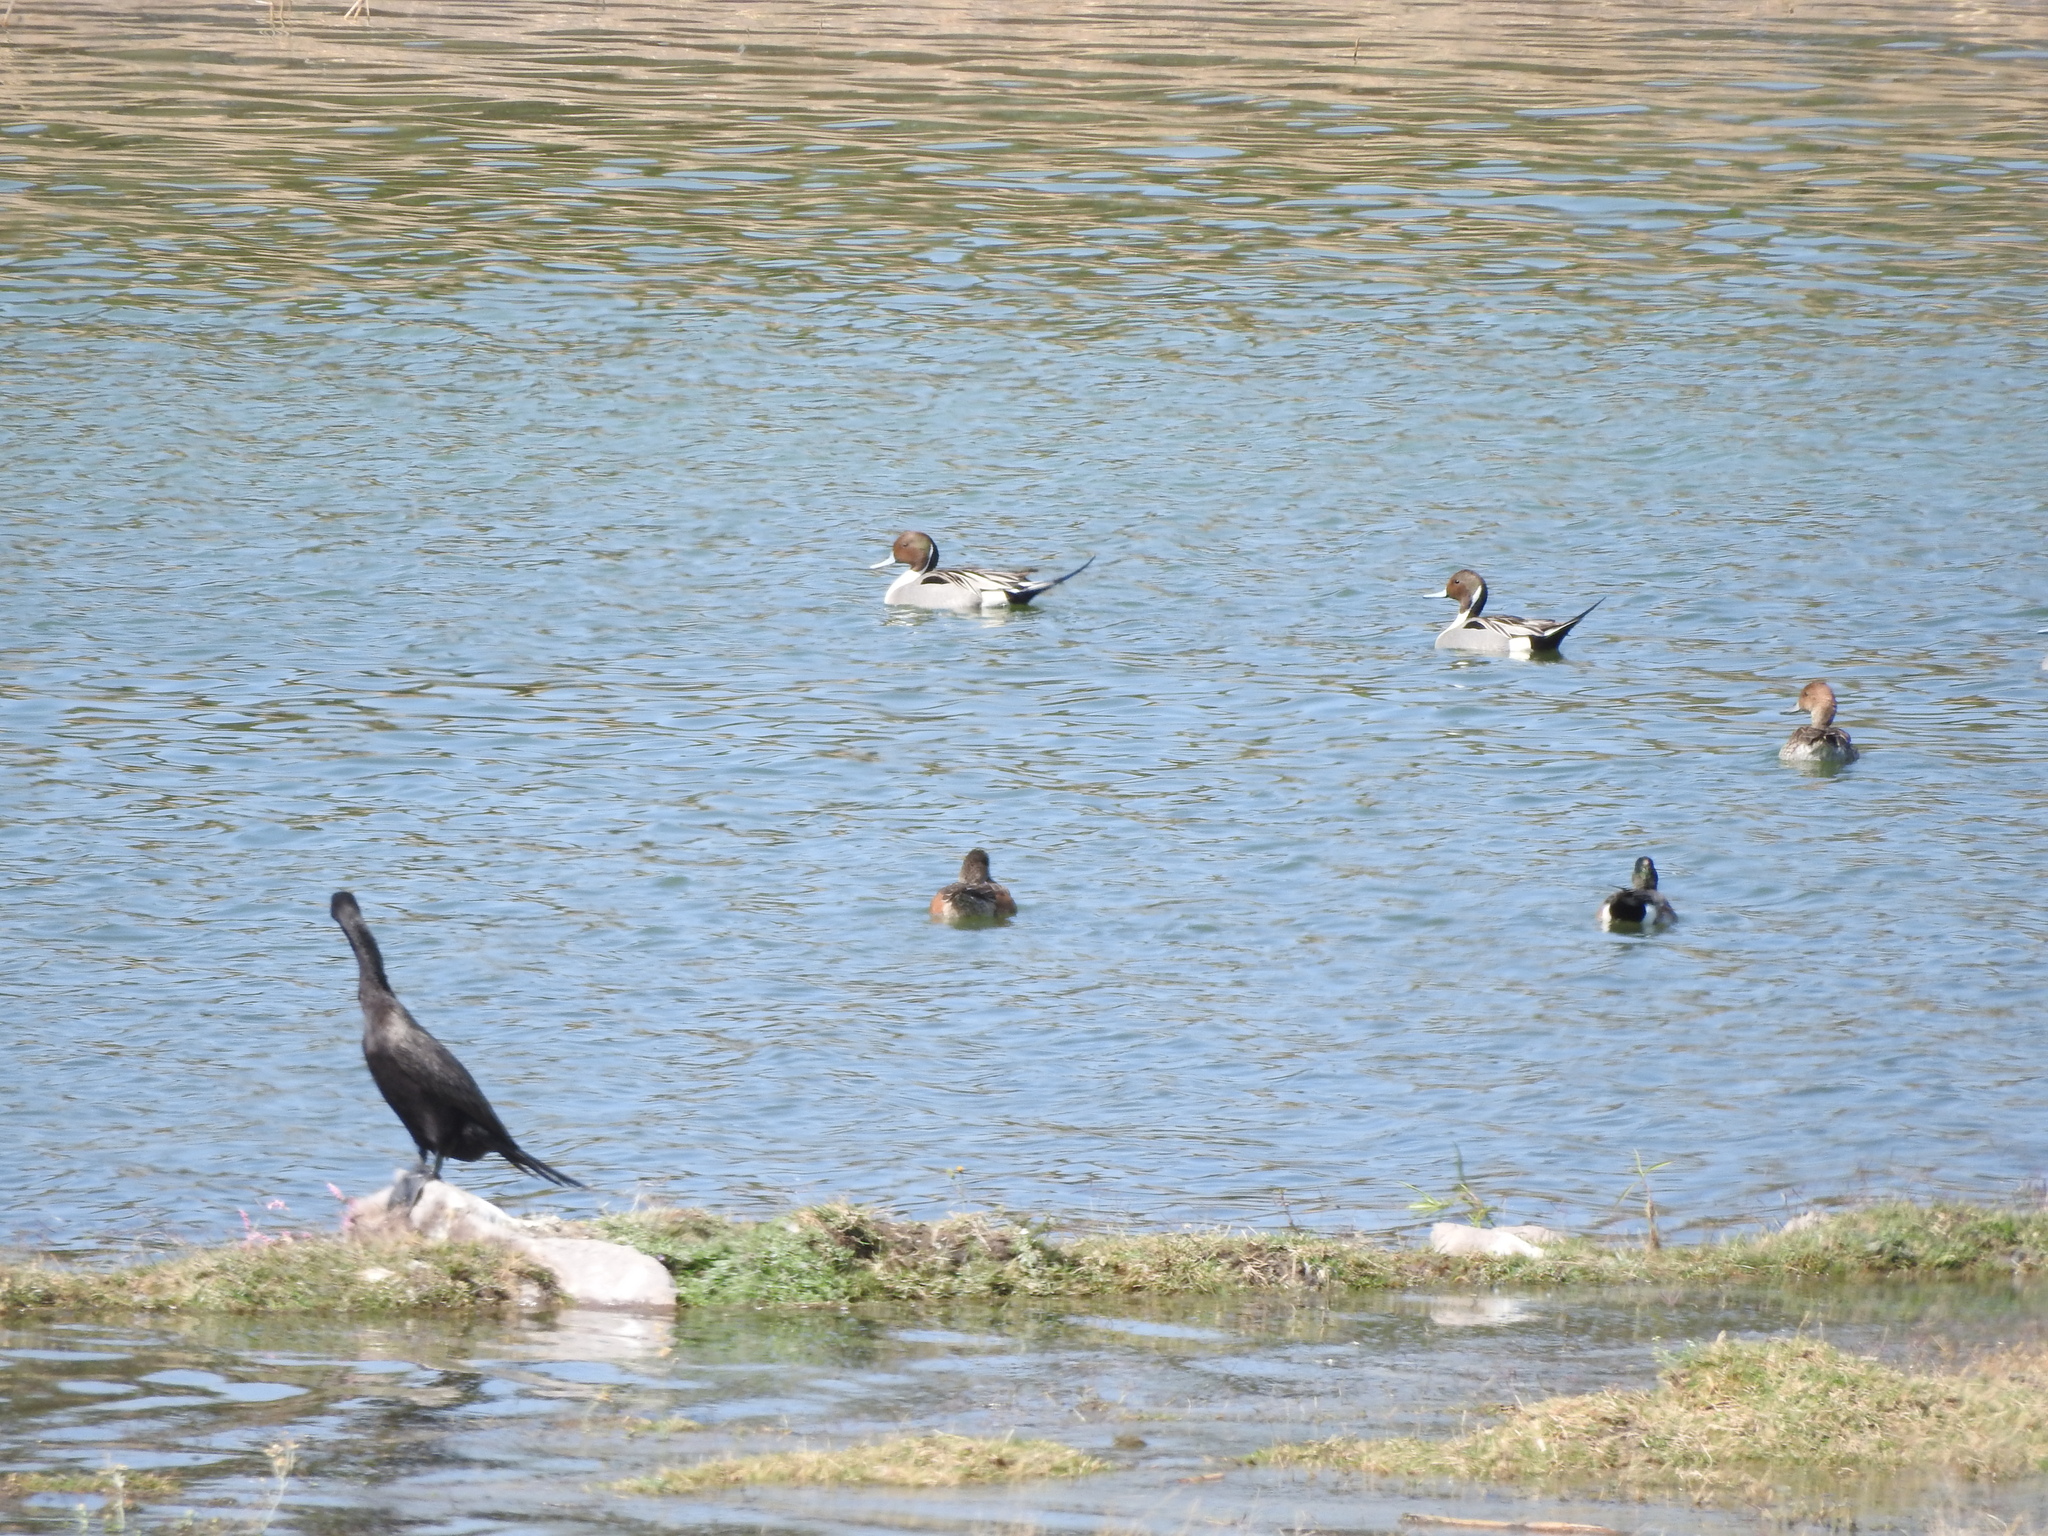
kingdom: Animalia
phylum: Chordata
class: Aves
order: Anseriformes
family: Anatidae
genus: Anas
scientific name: Anas acuta
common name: Northern pintail
